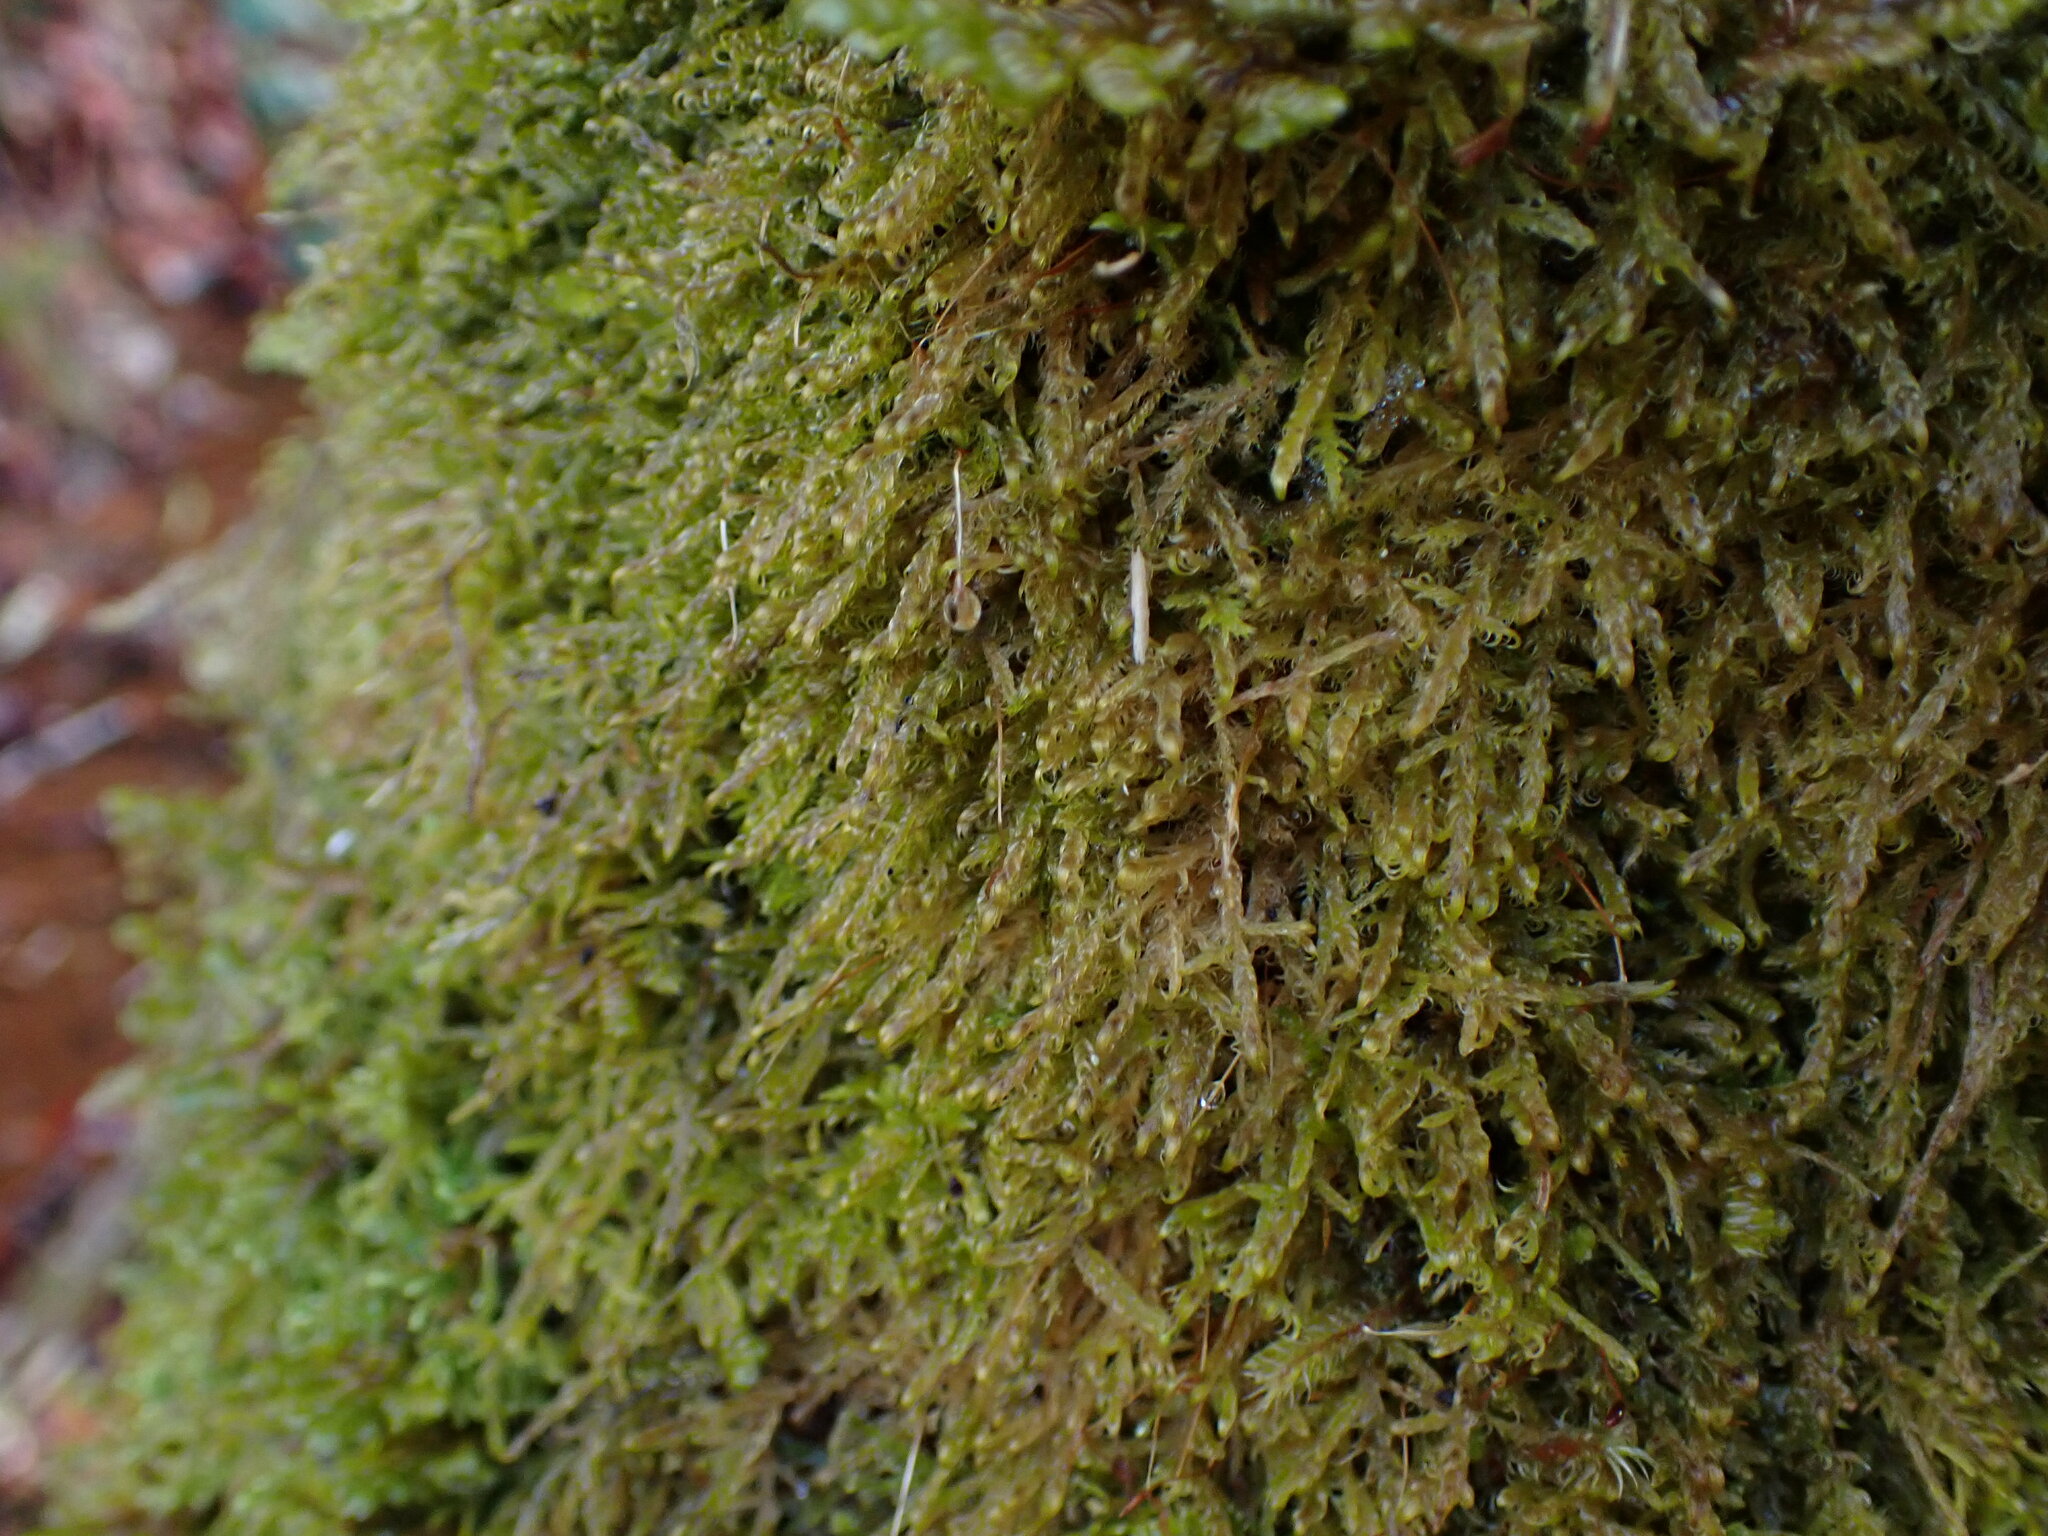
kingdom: Plantae
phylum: Bryophyta
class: Bryopsida
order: Hypnales
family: Scorpidiaceae
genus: Sanionia
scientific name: Sanionia uncinata
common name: Sickle moss
